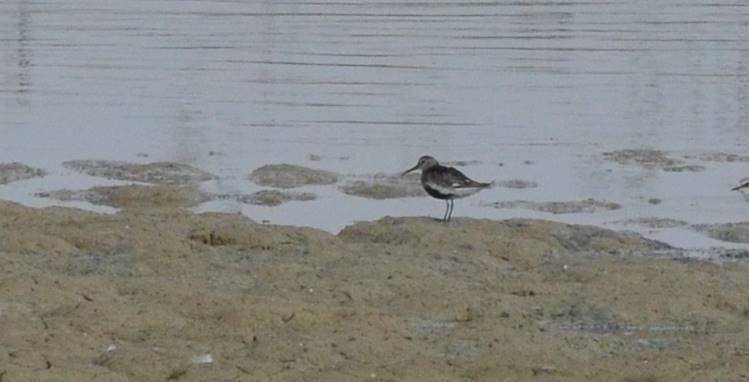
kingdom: Animalia
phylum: Chordata
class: Aves
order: Charadriiformes
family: Scolopacidae
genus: Calidris
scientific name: Calidris alpina
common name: Dunlin
